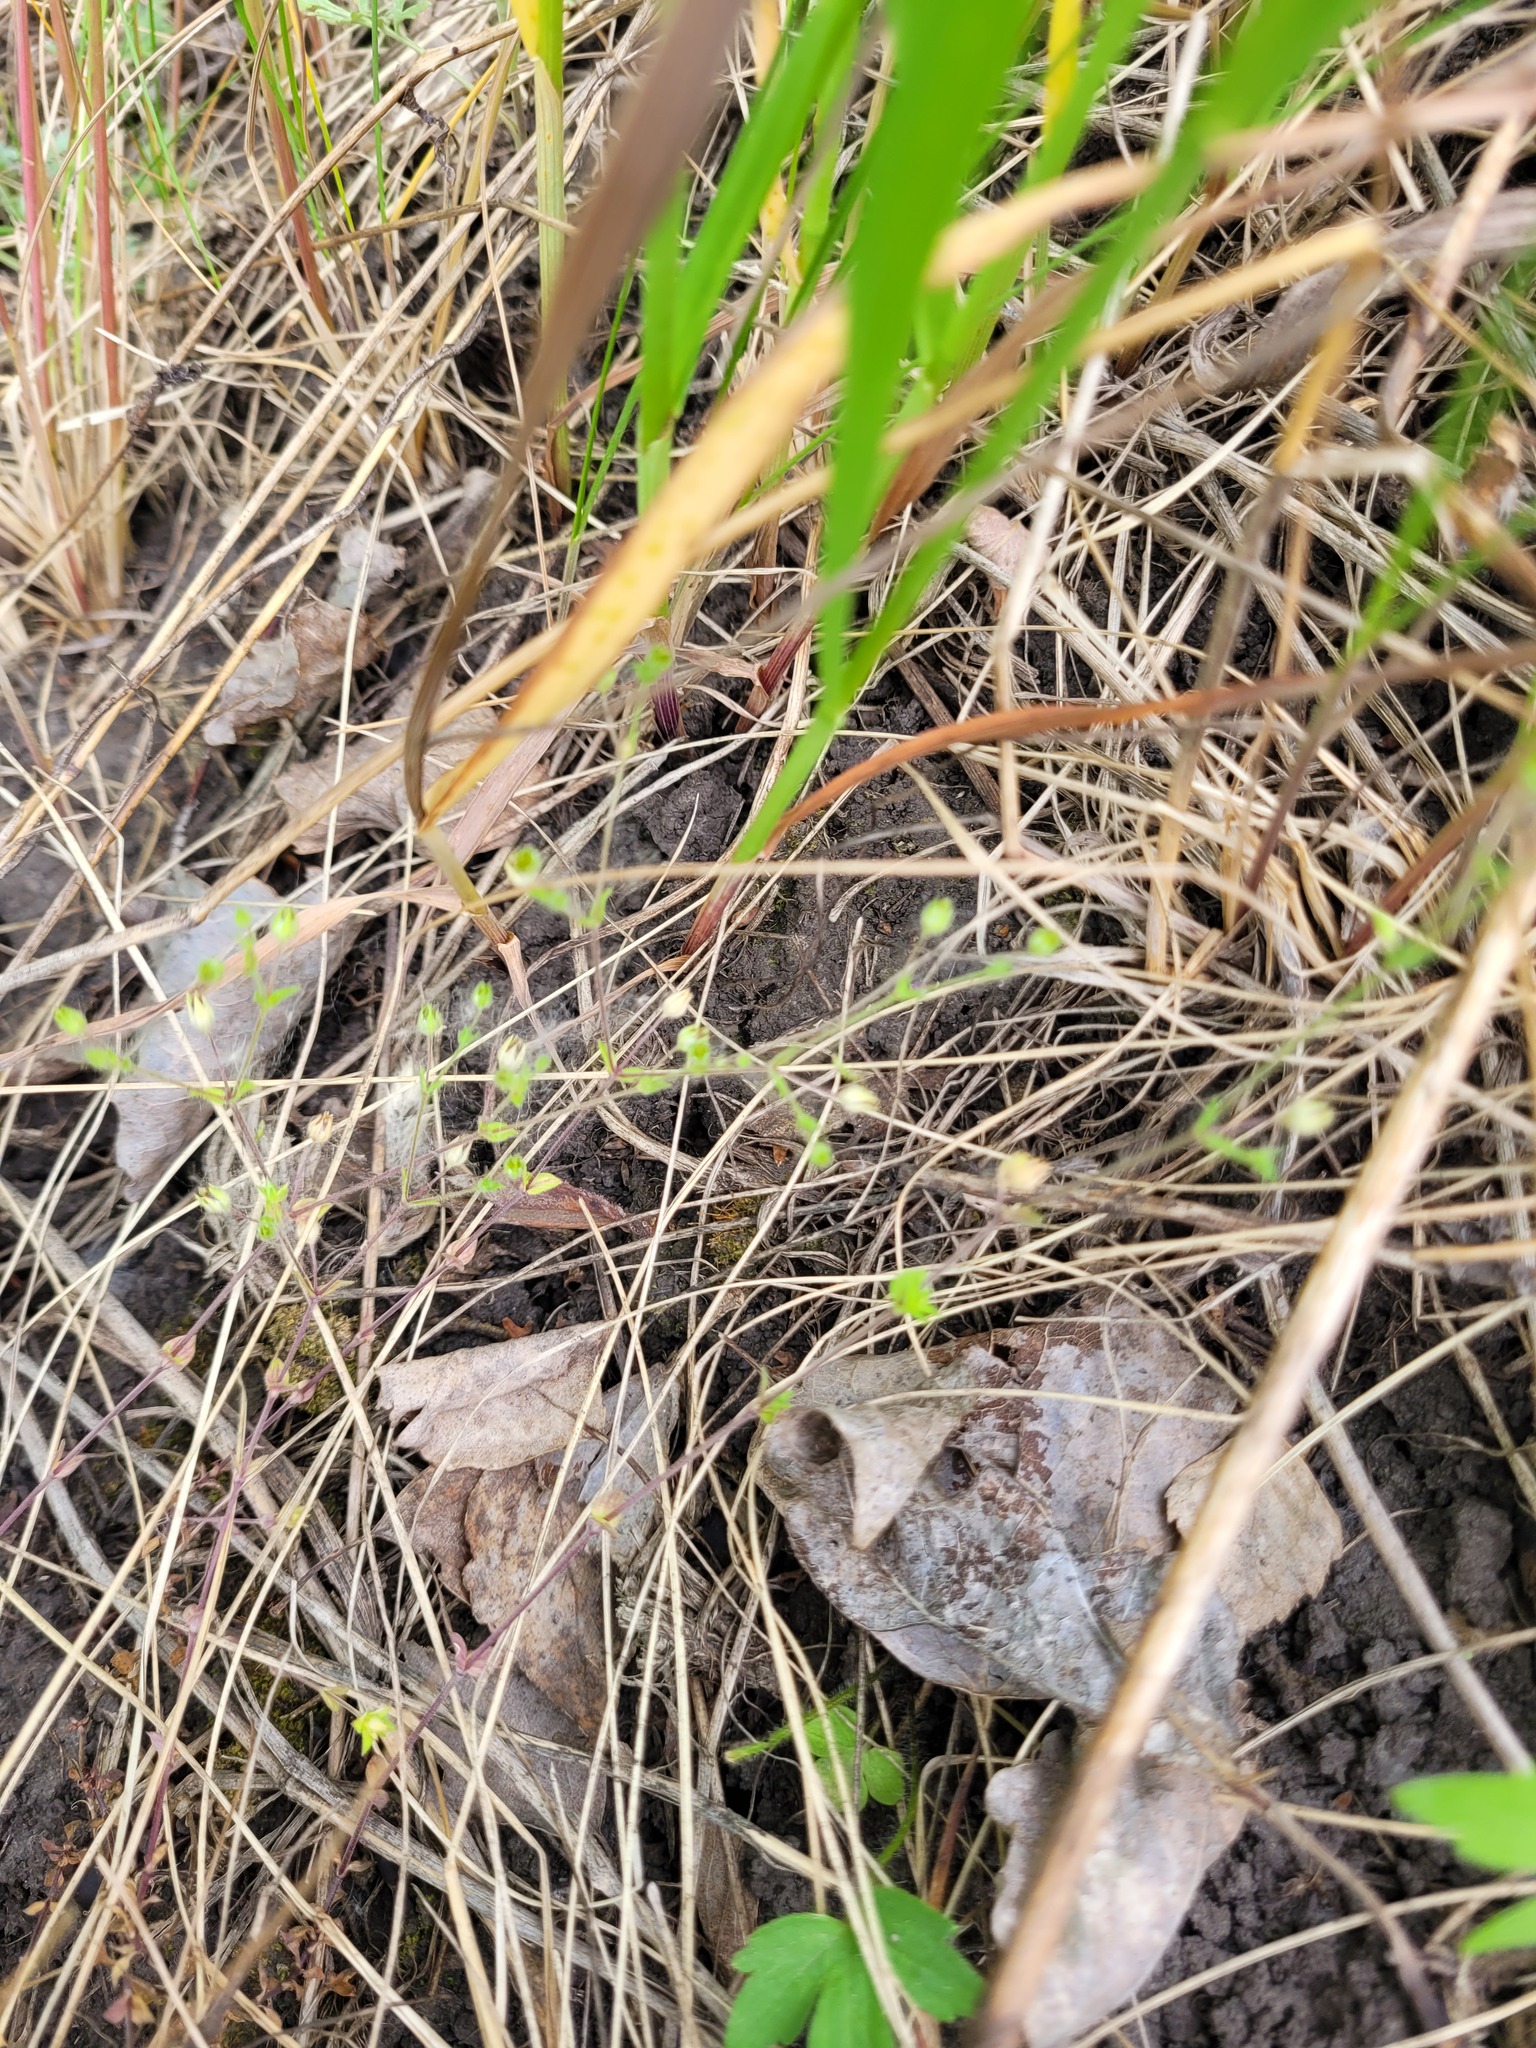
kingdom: Plantae
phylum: Tracheophyta
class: Magnoliopsida
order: Caryophyllales
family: Caryophyllaceae
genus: Arenaria
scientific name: Arenaria serpyllifolia
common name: Thyme-leaved sandwort
